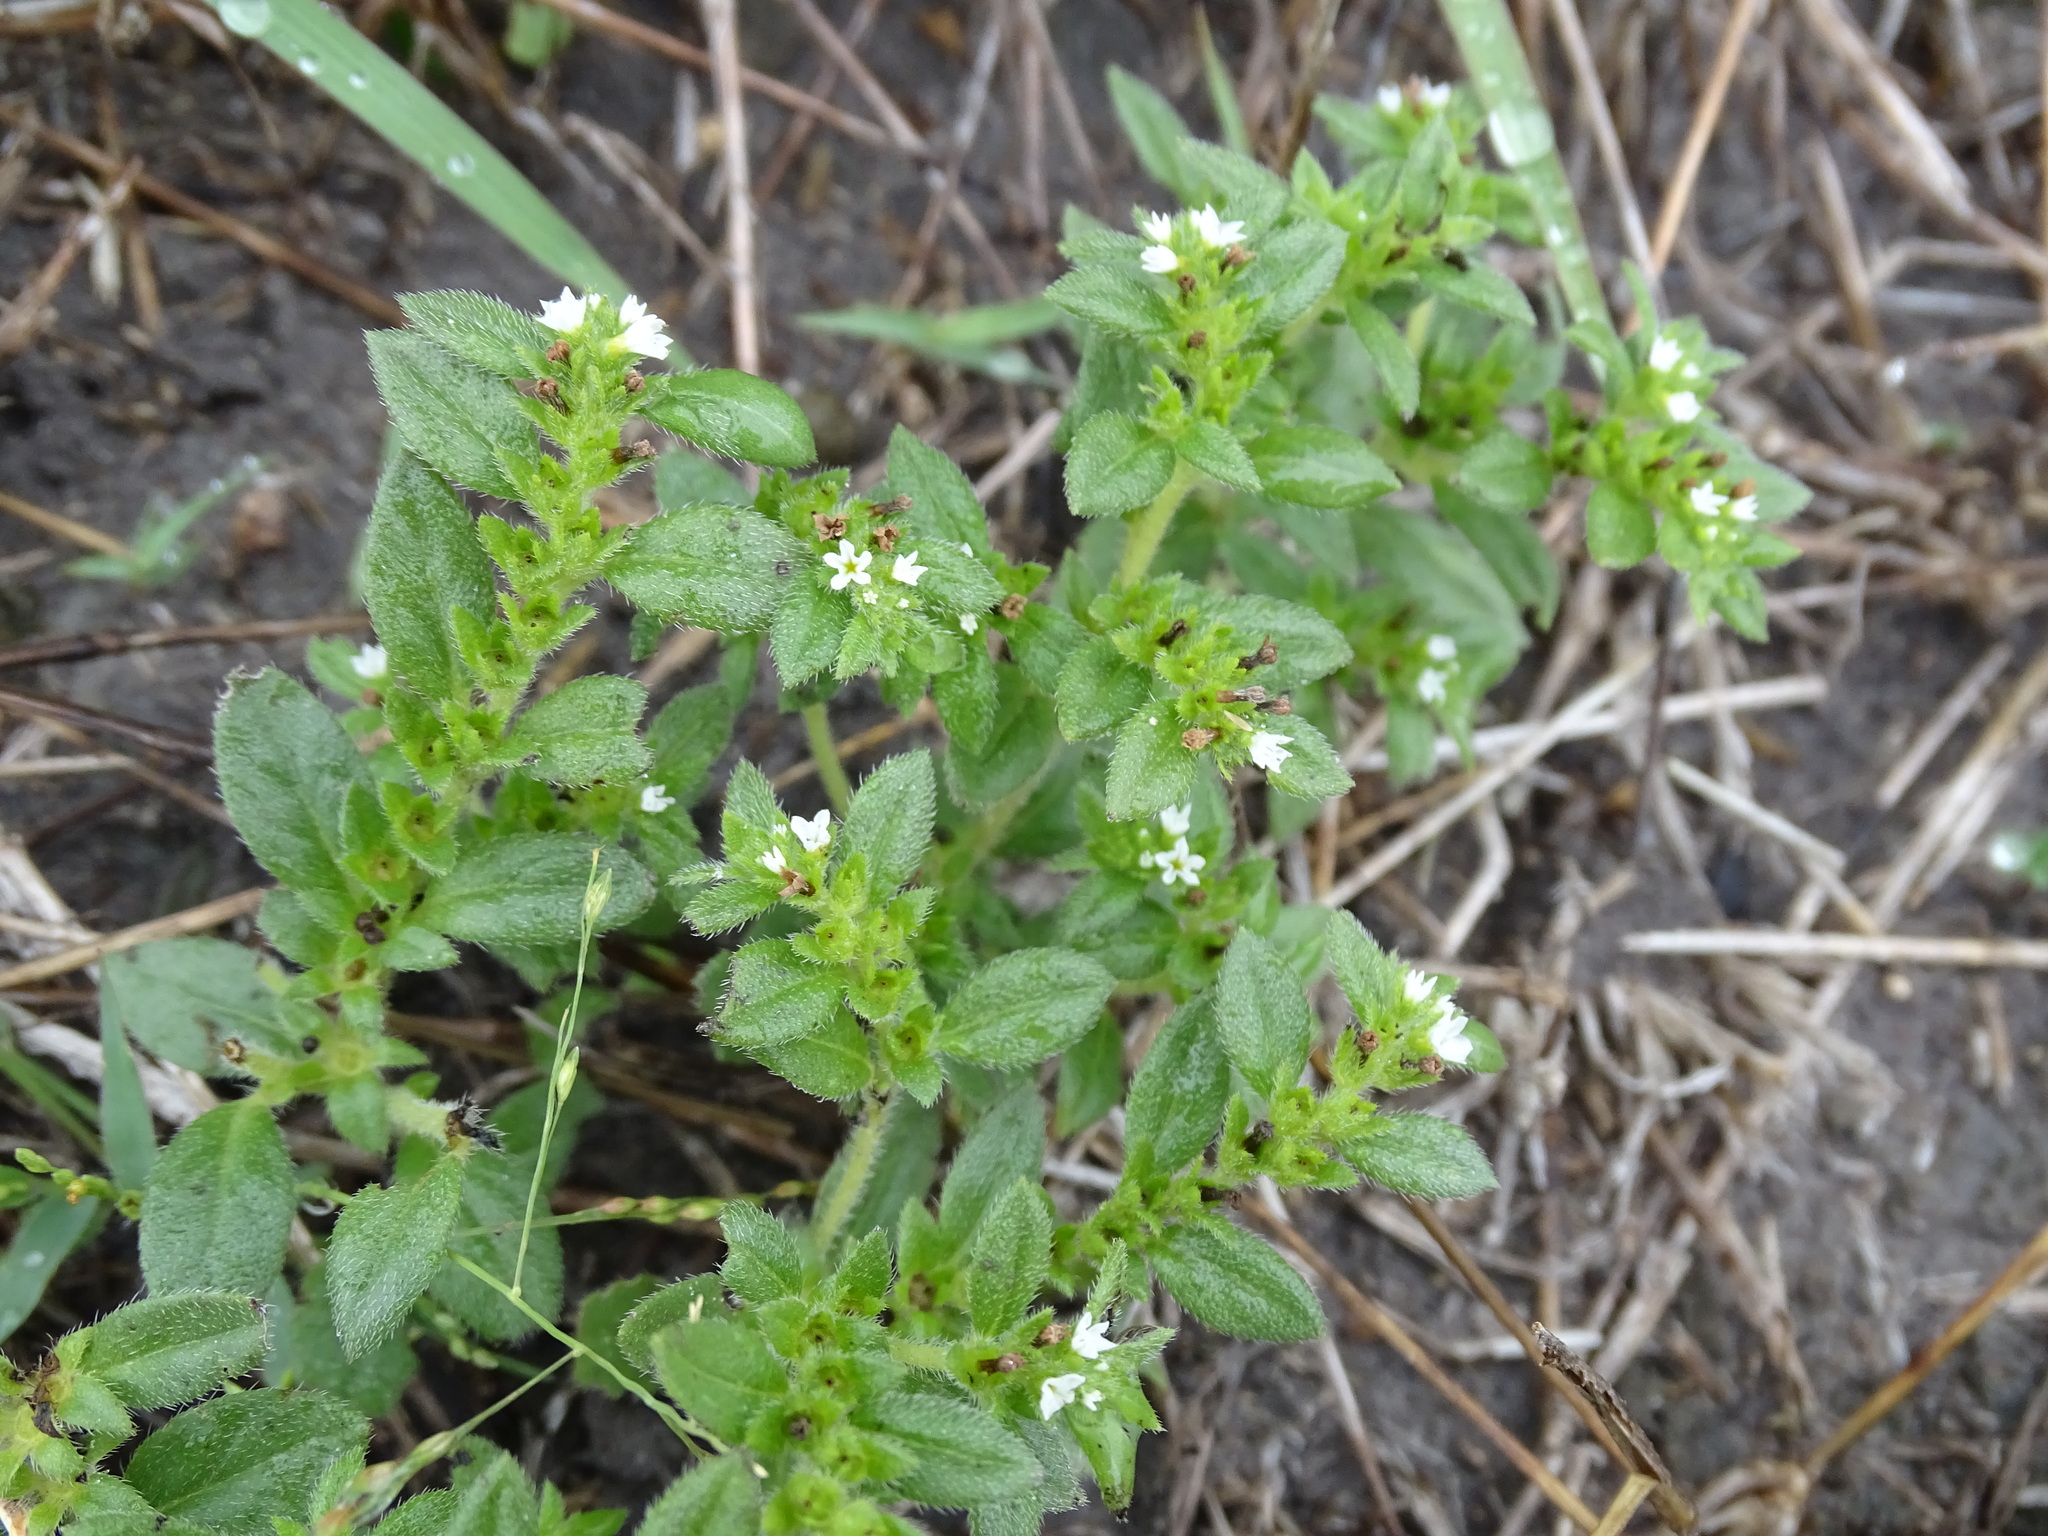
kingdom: Plantae
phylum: Tracheophyta
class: Magnoliopsida
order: Boraginales
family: Heliotropiaceae
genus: Euploca
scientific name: Euploca pringlei
